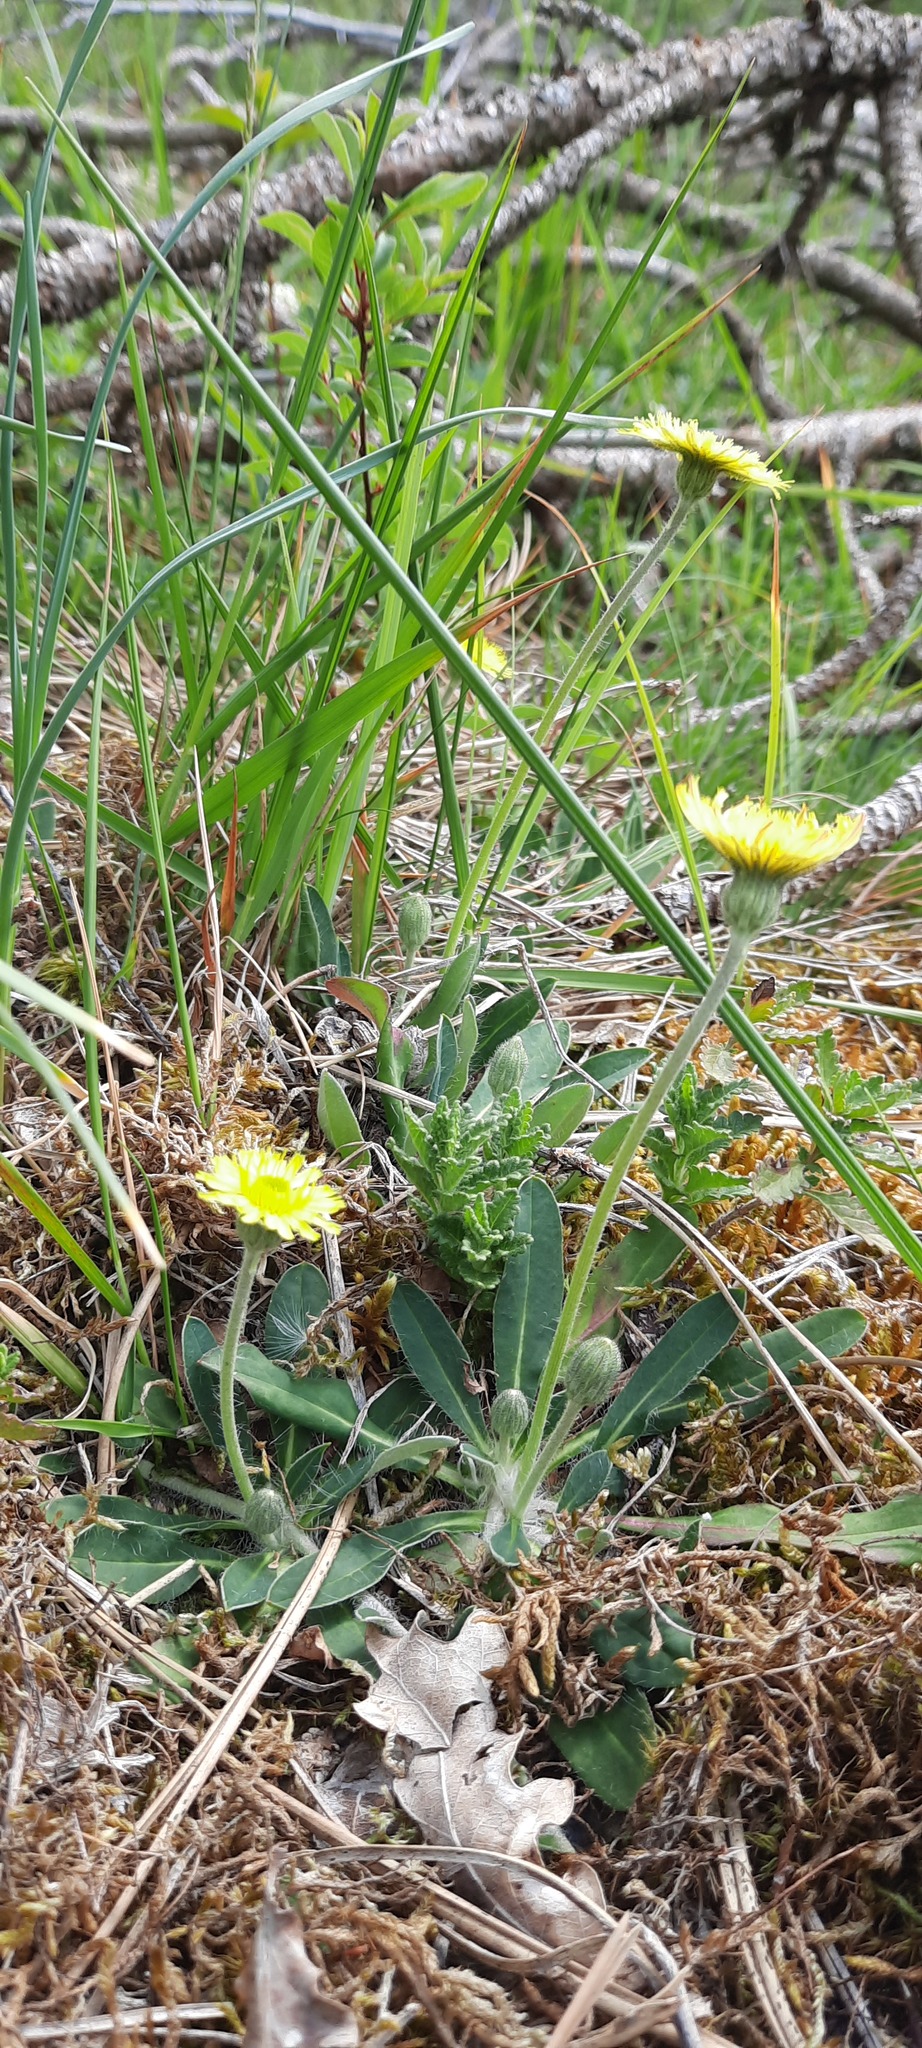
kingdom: Plantae
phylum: Tracheophyta
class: Magnoliopsida
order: Asterales
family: Asteraceae
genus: Pilosella
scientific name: Pilosella officinarum
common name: Mouse-ear hawkweed
